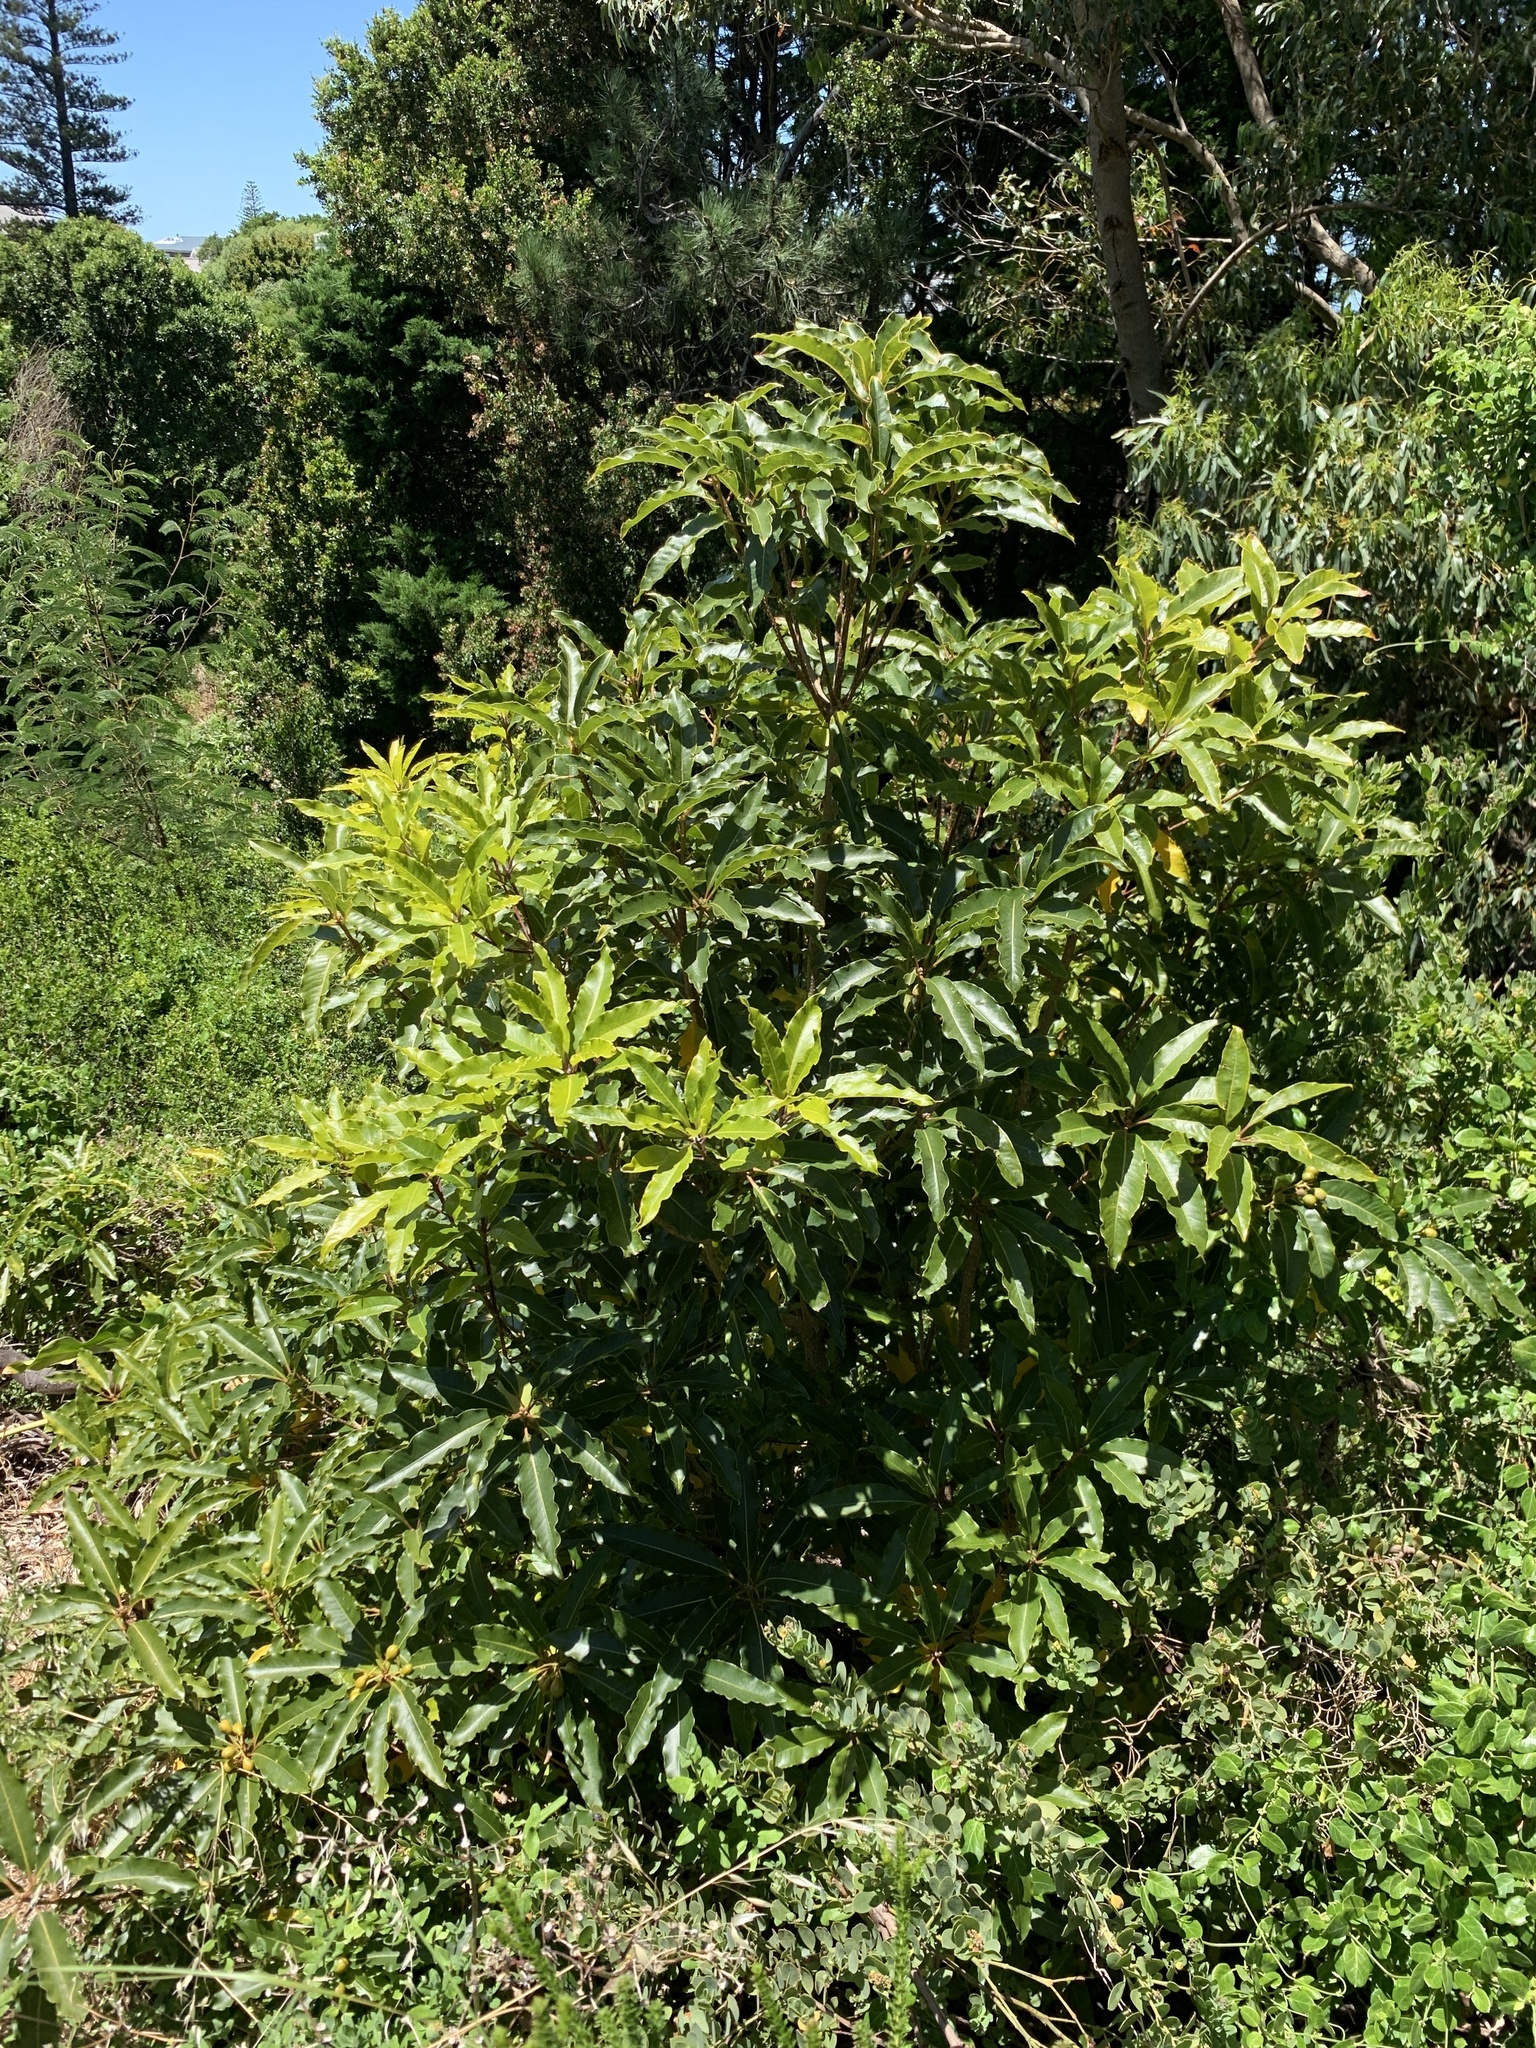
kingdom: Plantae
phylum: Tracheophyta
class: Magnoliopsida
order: Apiales
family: Pittosporaceae
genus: Pittosporum
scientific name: Pittosporum undulatum
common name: Australian cheesewood
